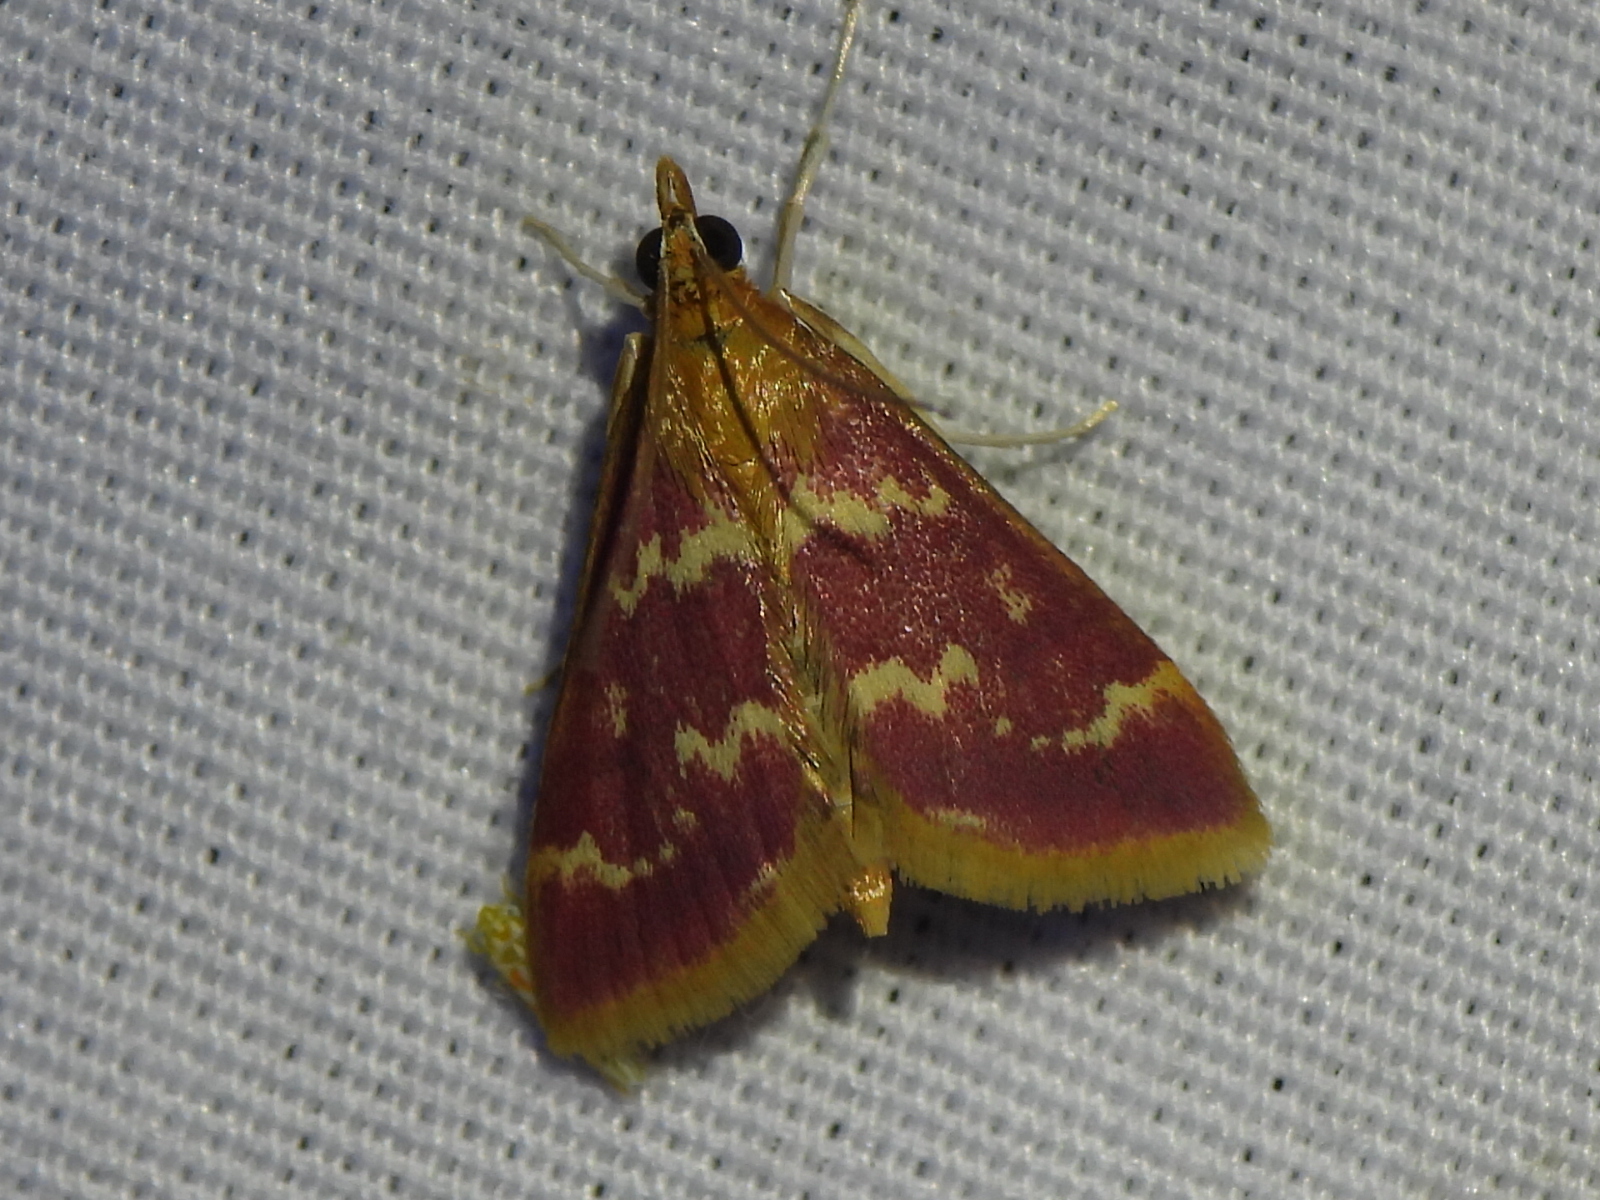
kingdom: Animalia
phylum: Arthropoda
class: Insecta
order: Lepidoptera
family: Crambidae
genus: Pyrausta
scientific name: Pyrausta signatalis
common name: Raspberry pyrausta moth
